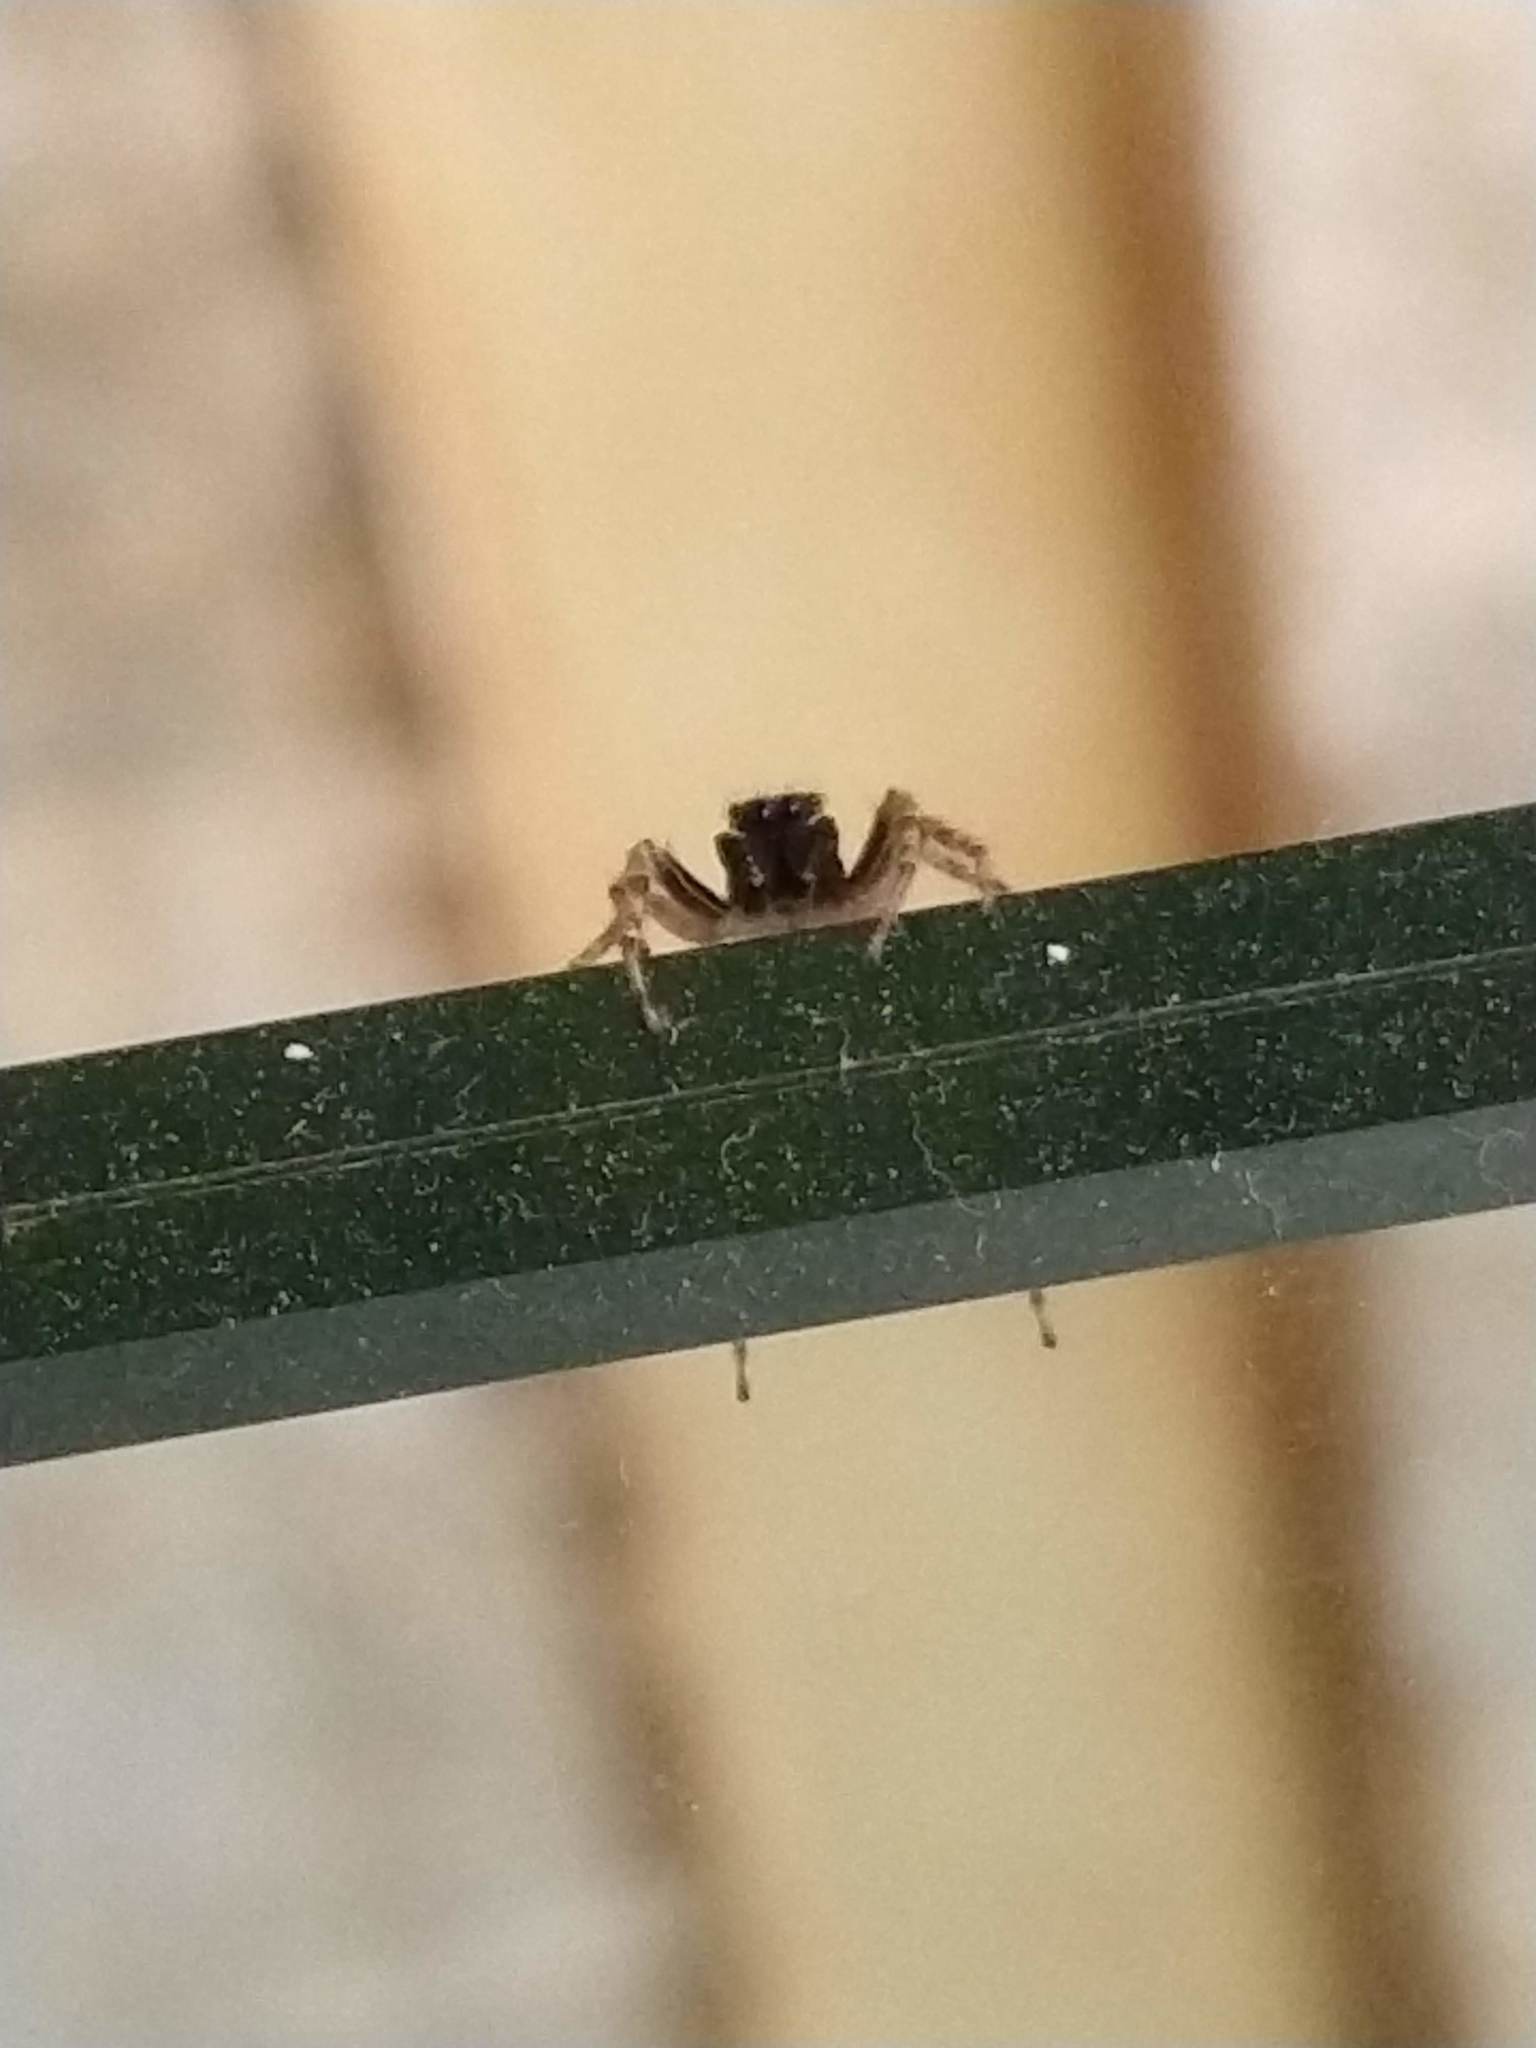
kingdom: Animalia
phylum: Arthropoda
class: Arachnida
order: Araneae
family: Salticidae
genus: Saitis
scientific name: Saitis variegatus
